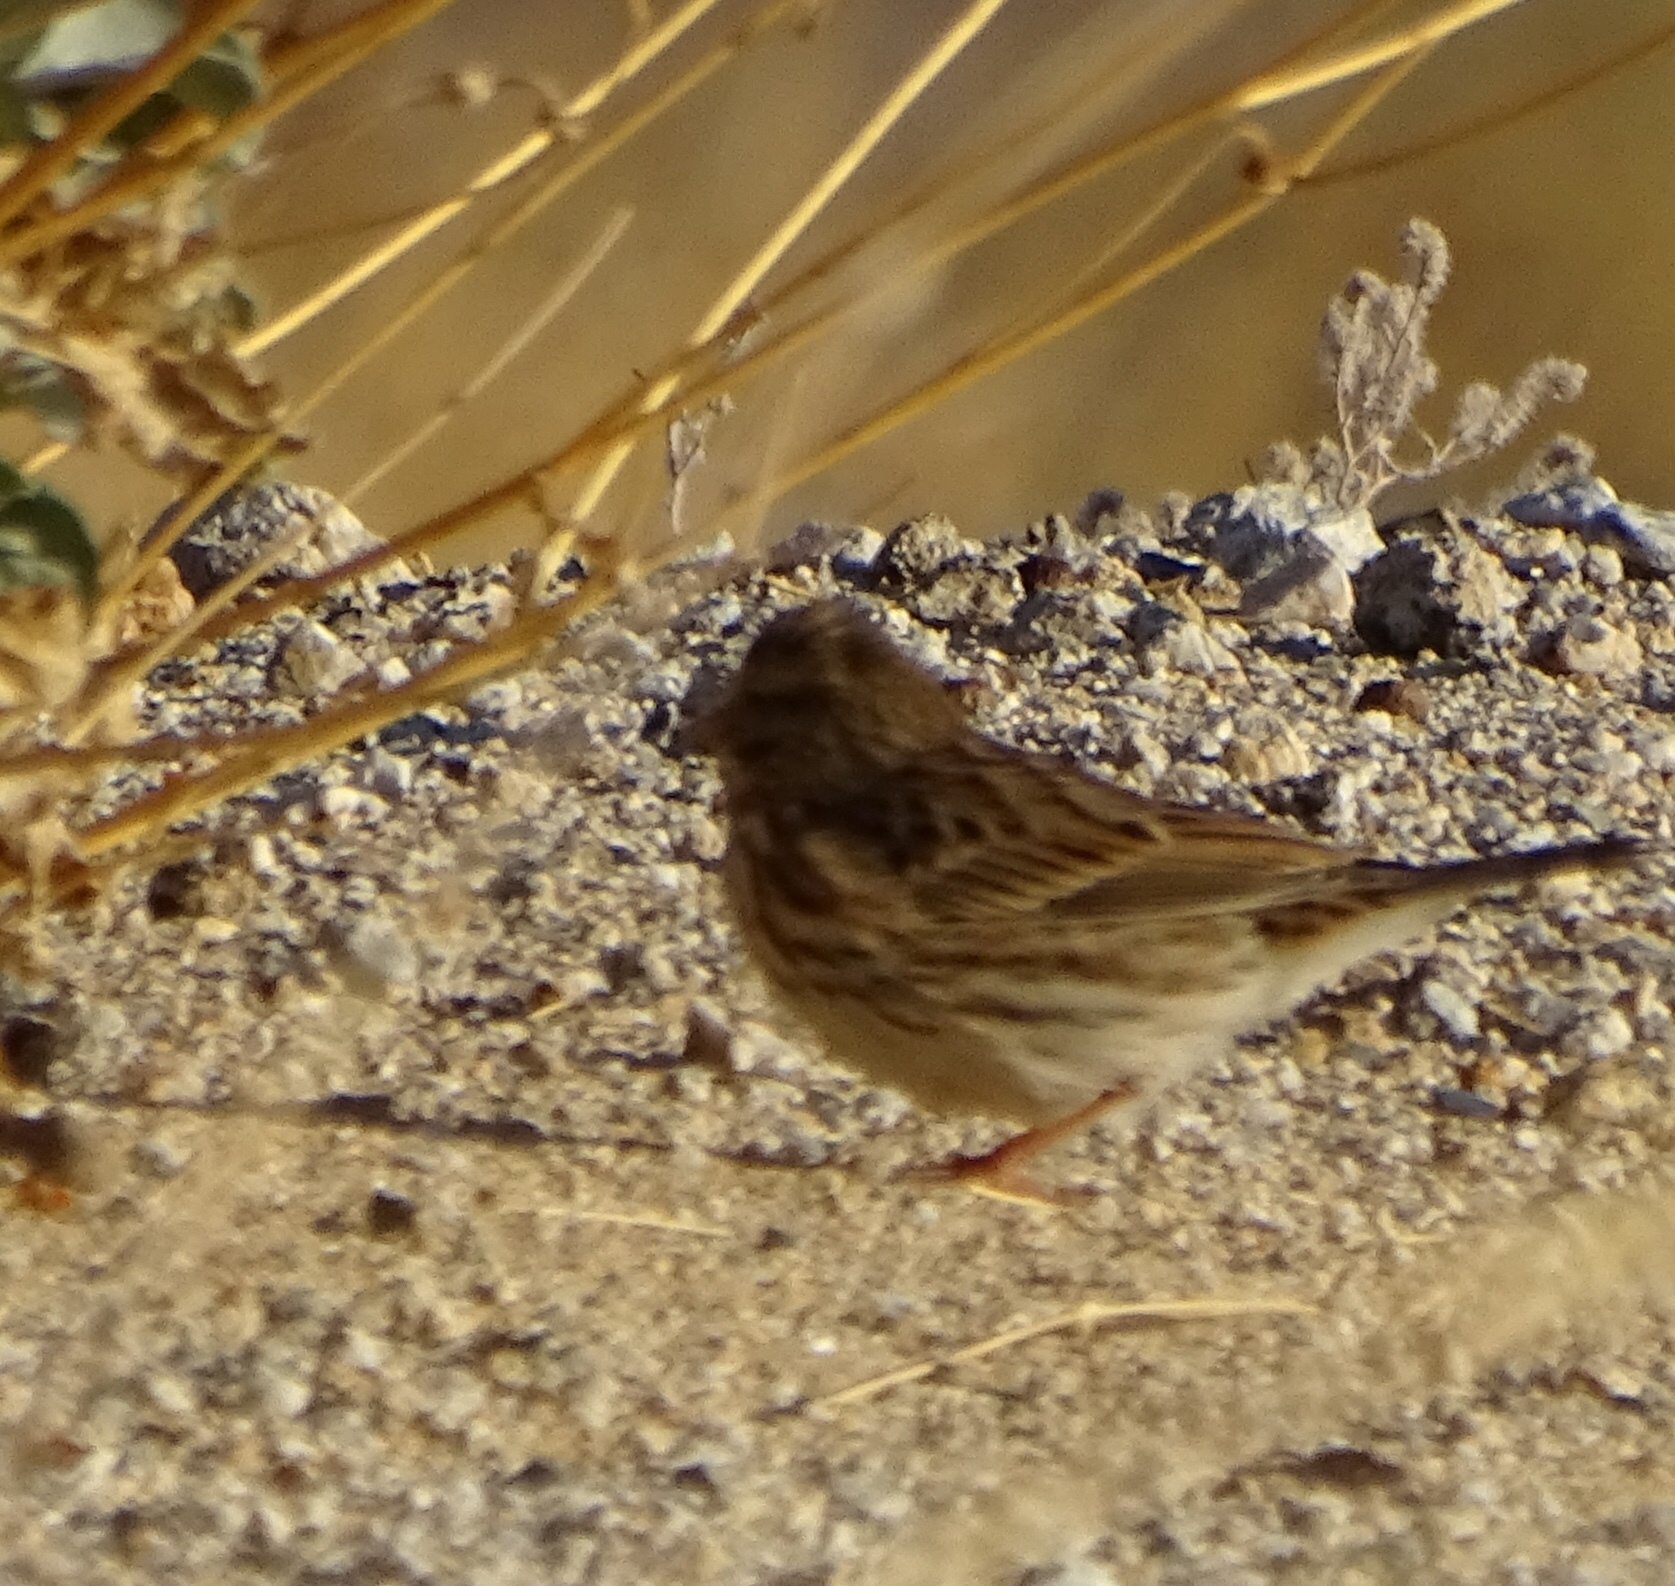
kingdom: Animalia
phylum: Chordata
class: Aves
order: Passeriformes
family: Passerellidae
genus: Passerculus
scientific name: Passerculus sandwichensis
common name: Savannah sparrow
